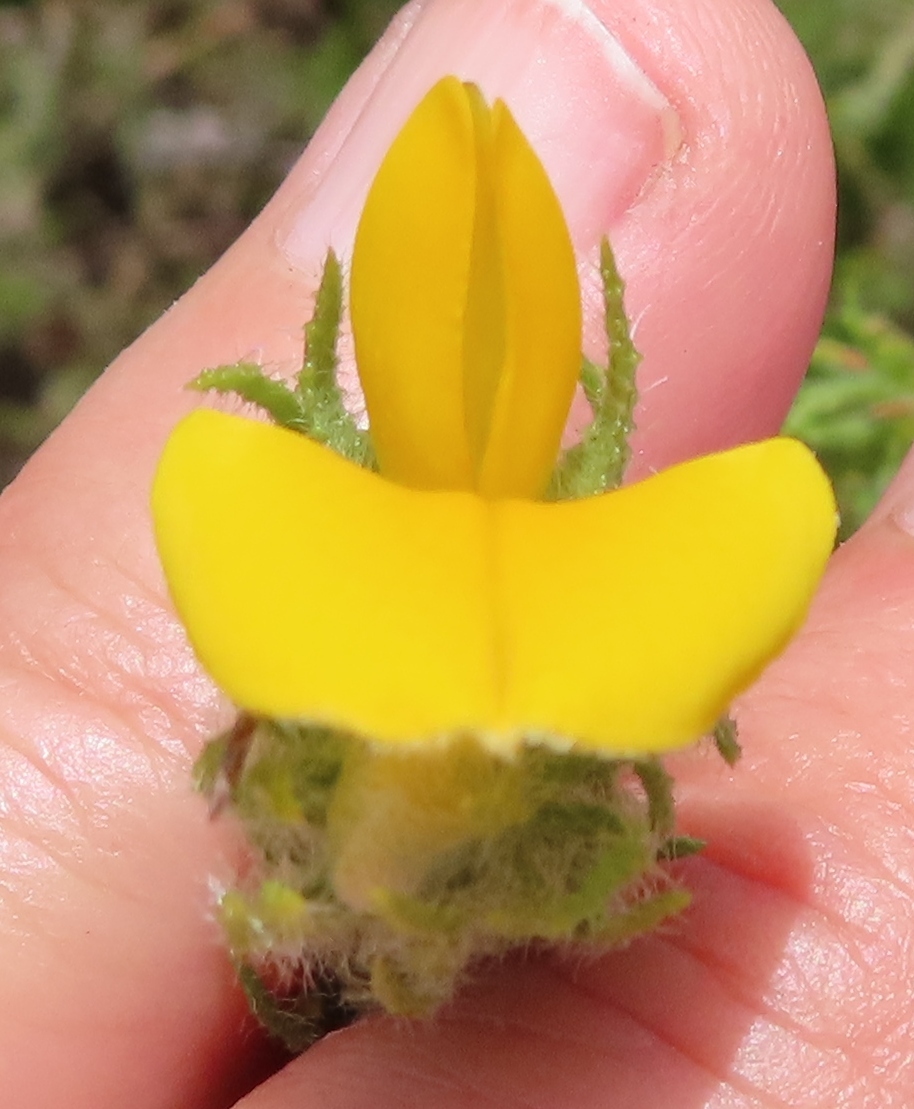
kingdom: Plantae
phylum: Tracheophyta
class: Magnoliopsida
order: Fabales
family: Fabaceae
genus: Aspalathus
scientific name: Aspalathus ciliaris
